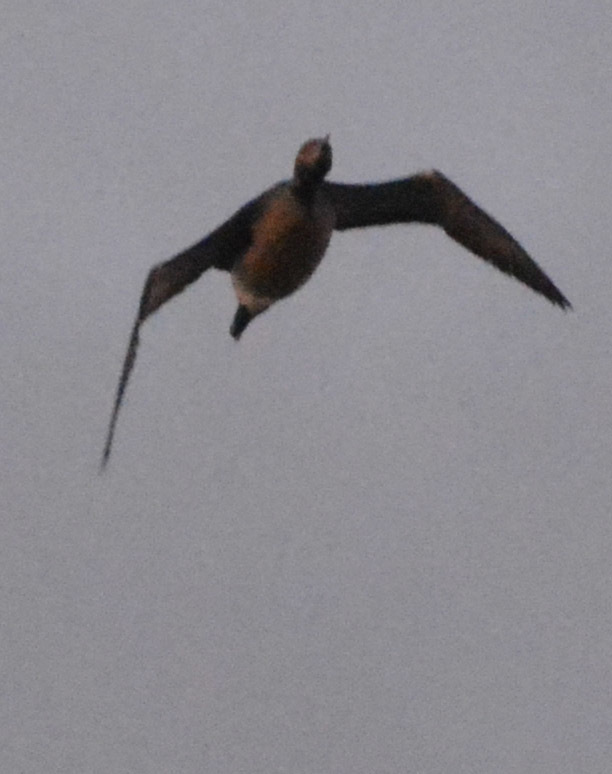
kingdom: Animalia
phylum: Chordata
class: Aves
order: Gaviiformes
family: Gaviidae
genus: Gavia
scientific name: Gavia arctica
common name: Black-throated loon
